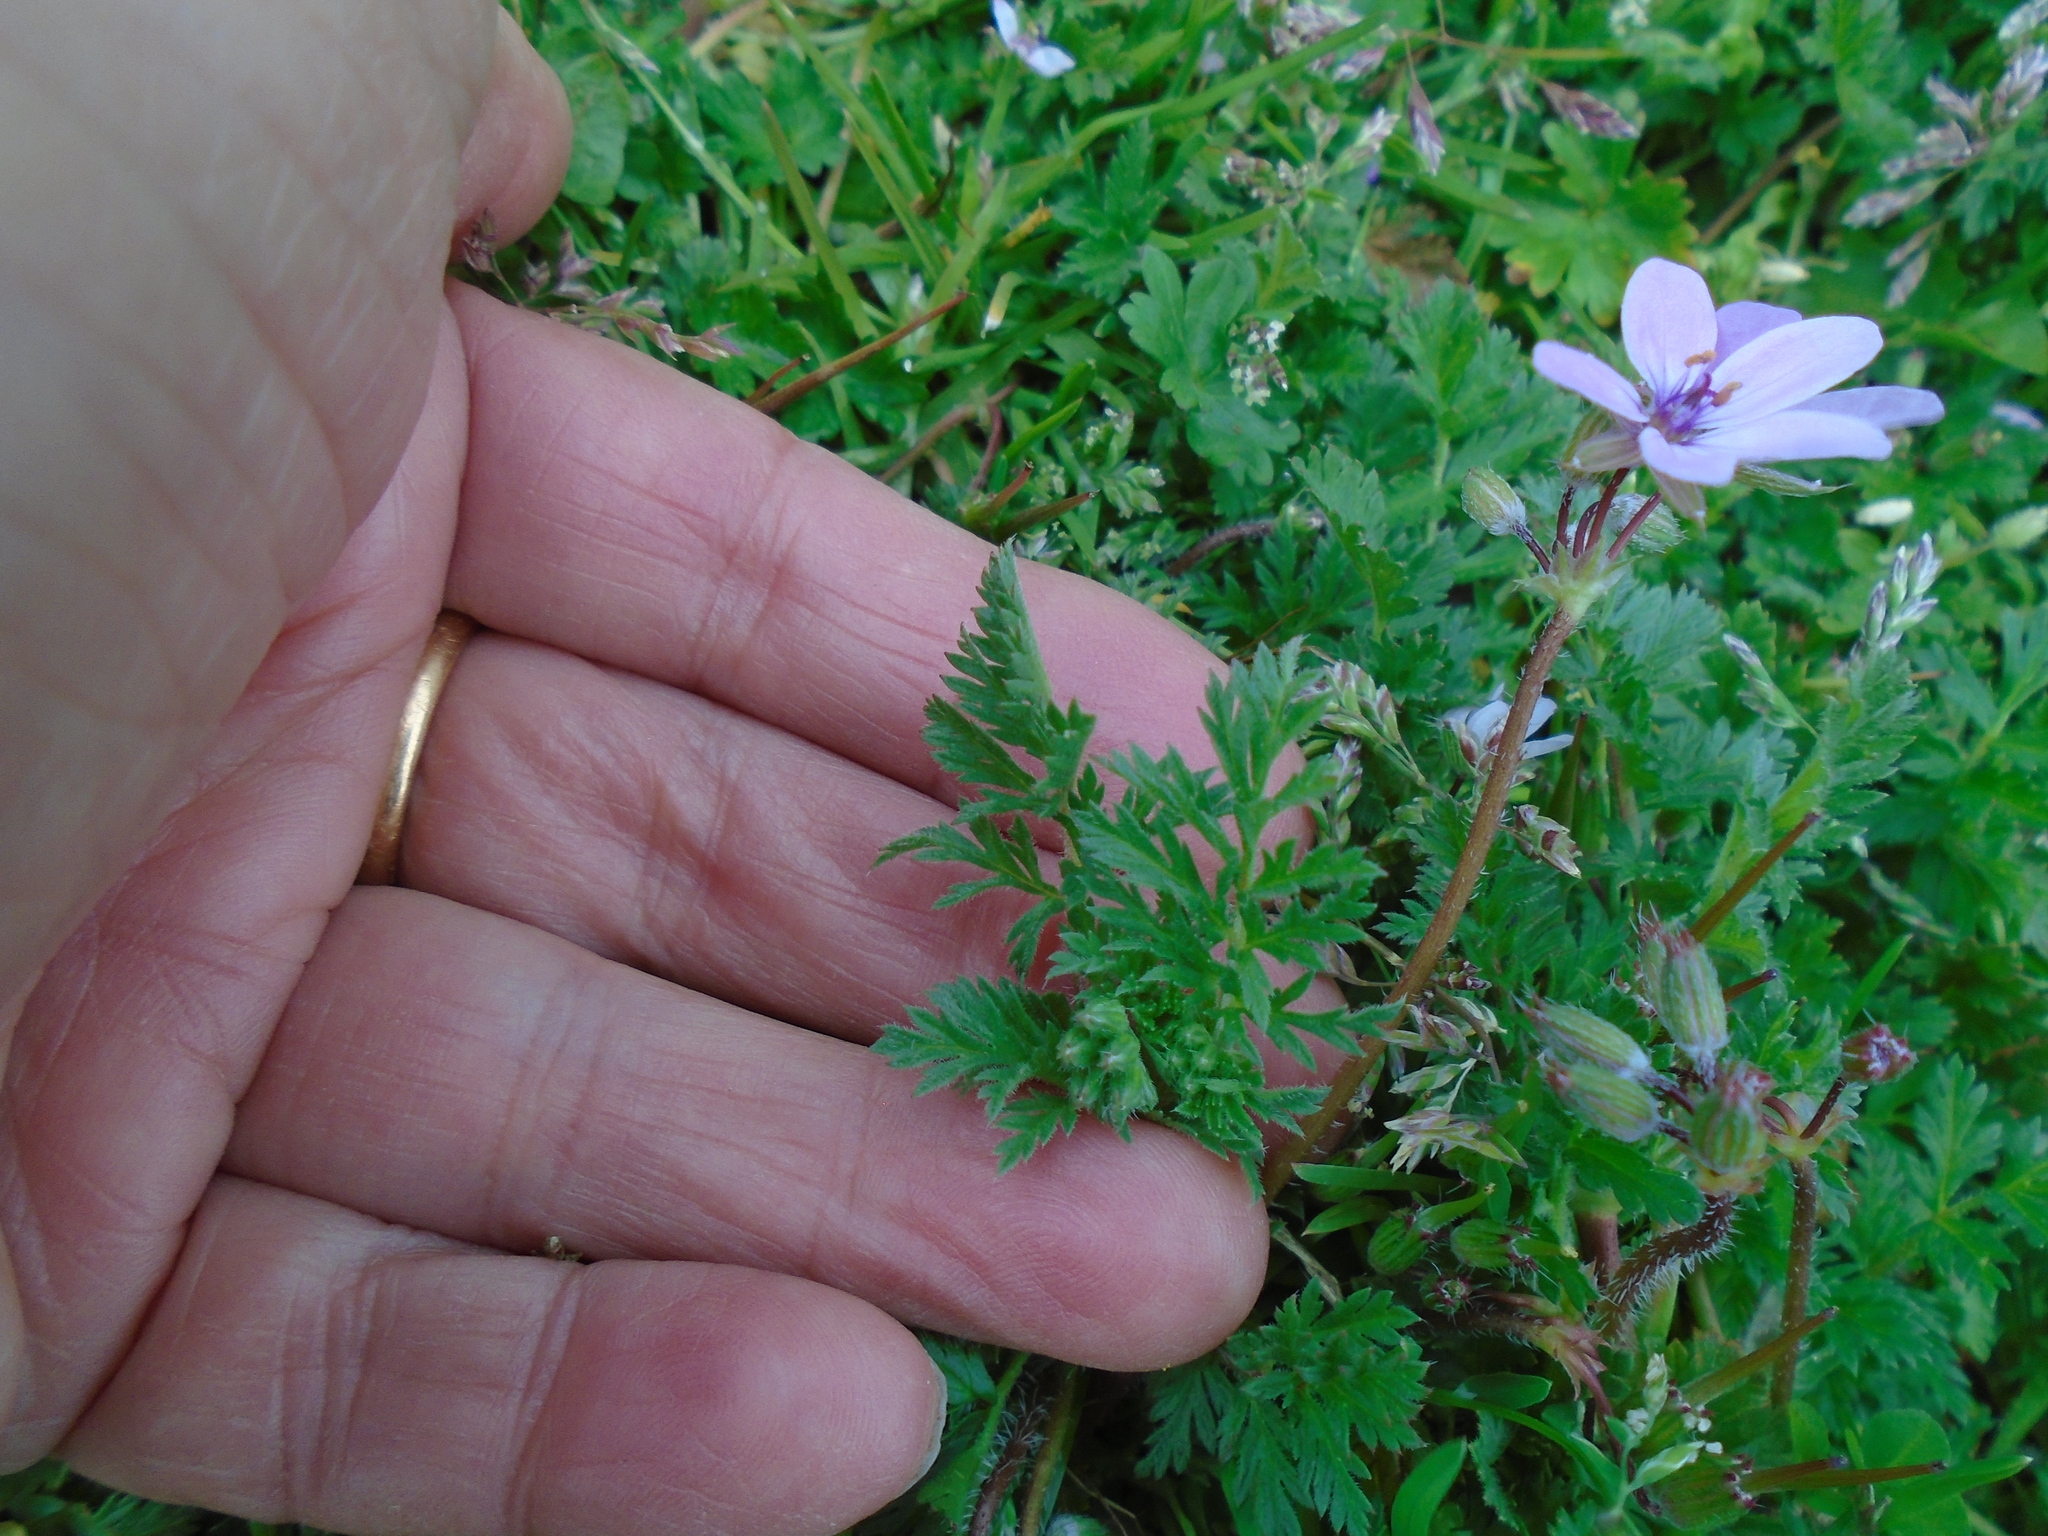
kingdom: Plantae
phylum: Tracheophyta
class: Magnoliopsida
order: Geraniales
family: Geraniaceae
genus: Erodium
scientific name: Erodium cicutarium
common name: Common stork's-bill
